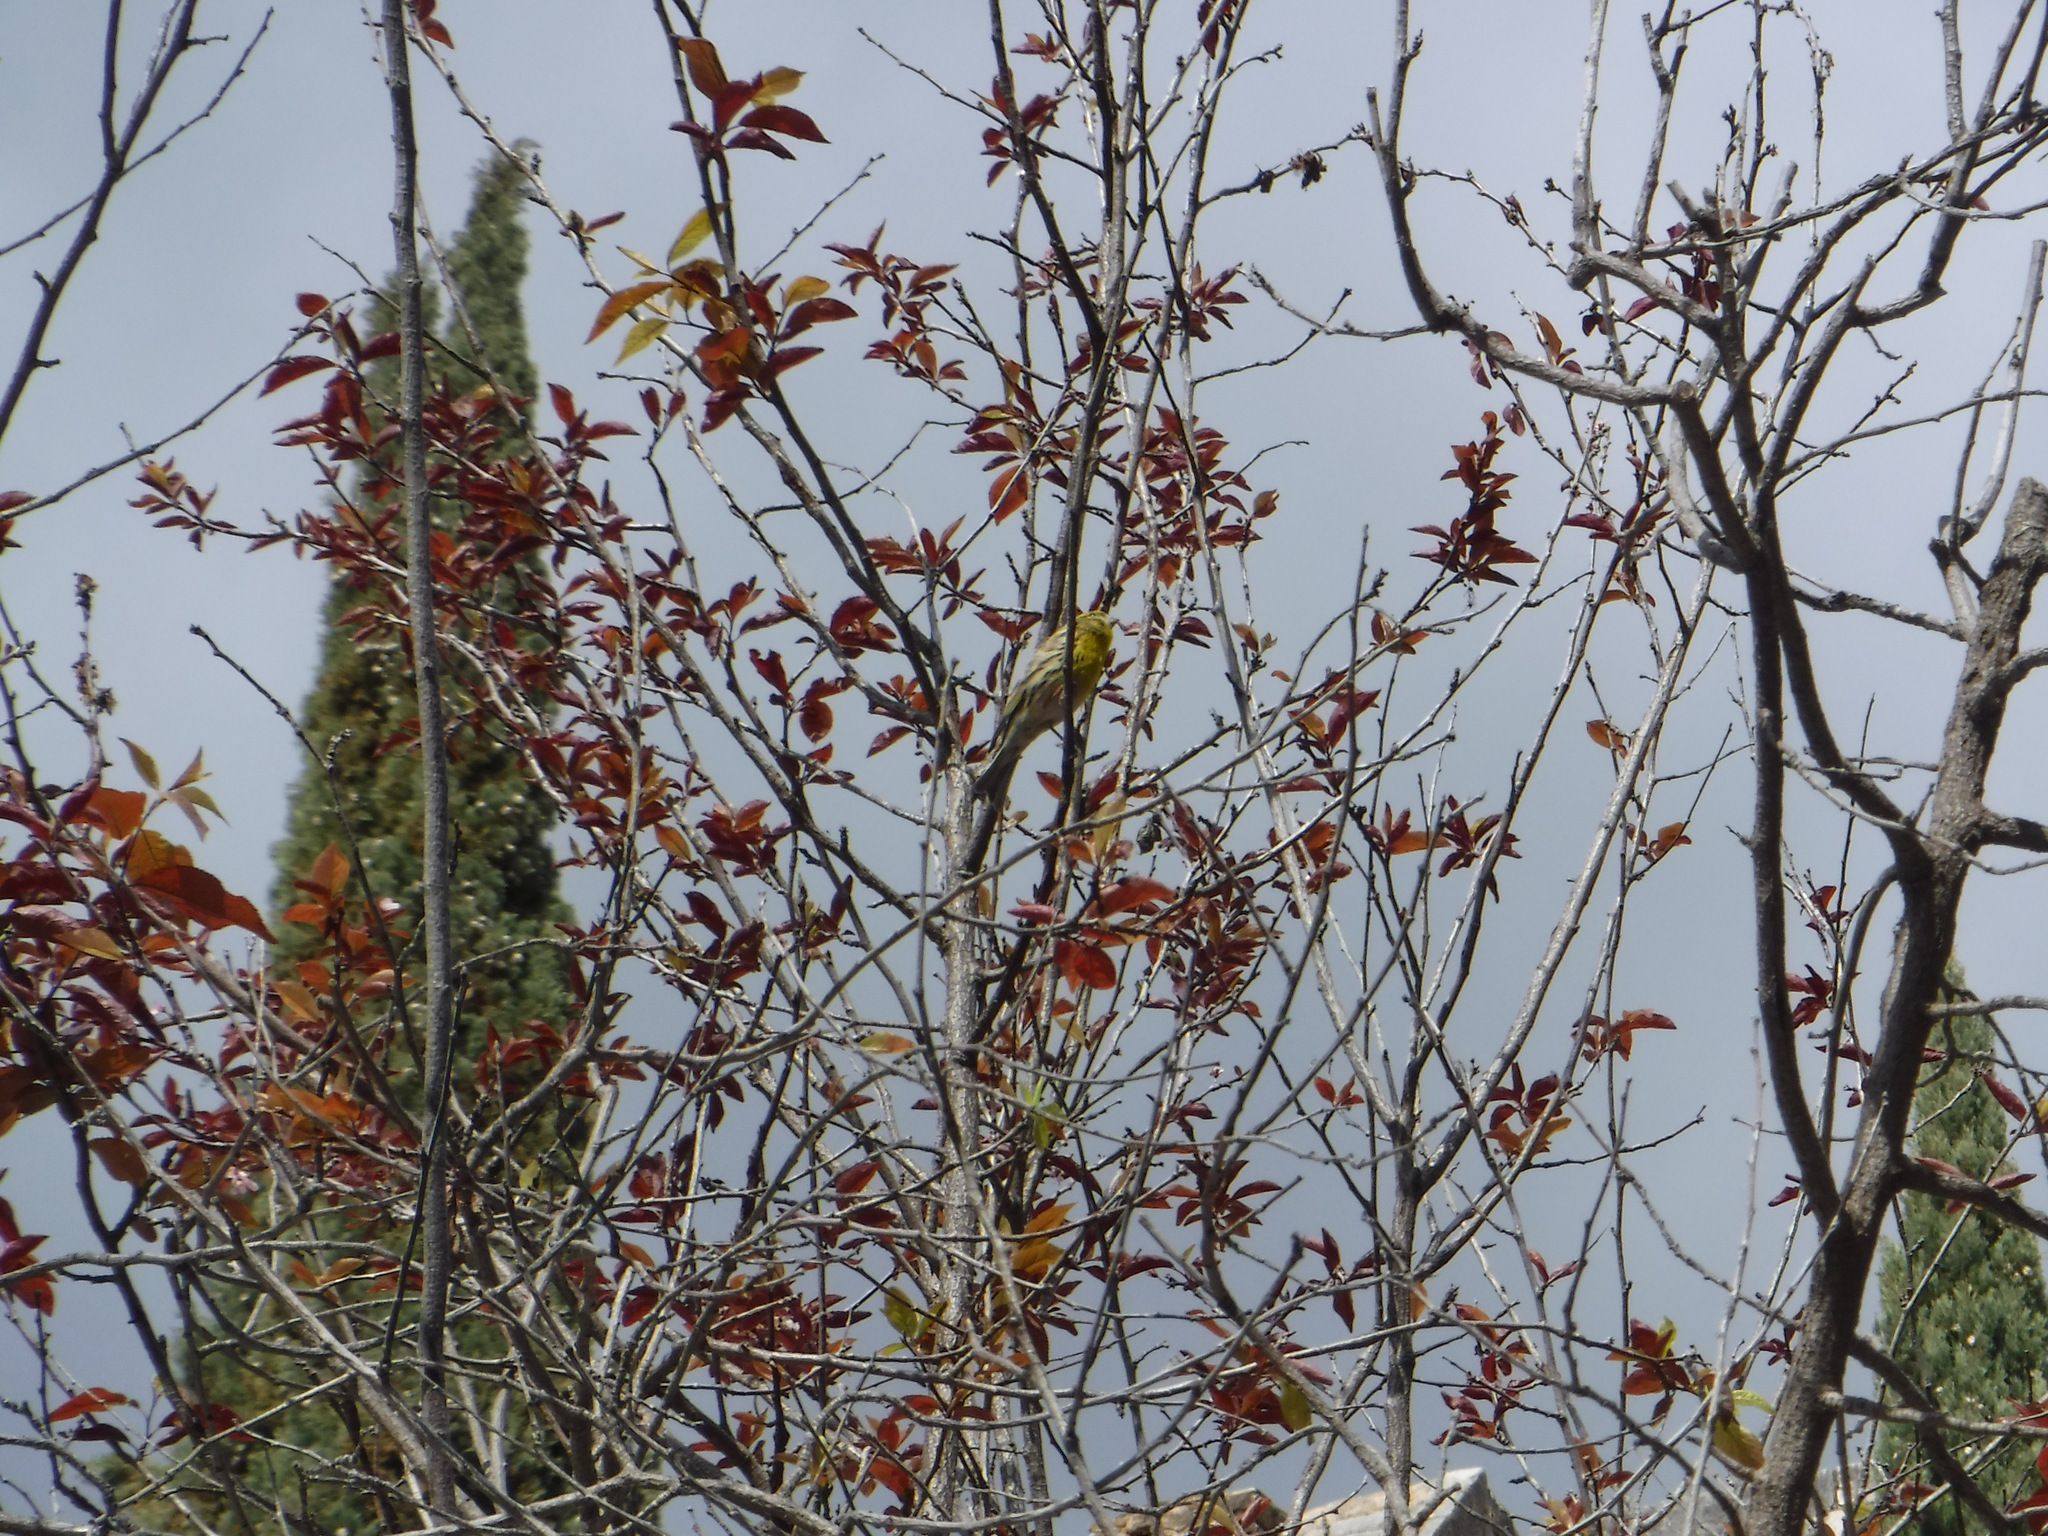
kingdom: Animalia
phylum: Chordata
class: Aves
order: Passeriformes
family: Fringillidae
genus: Serinus
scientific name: Serinus serinus
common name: European serin
